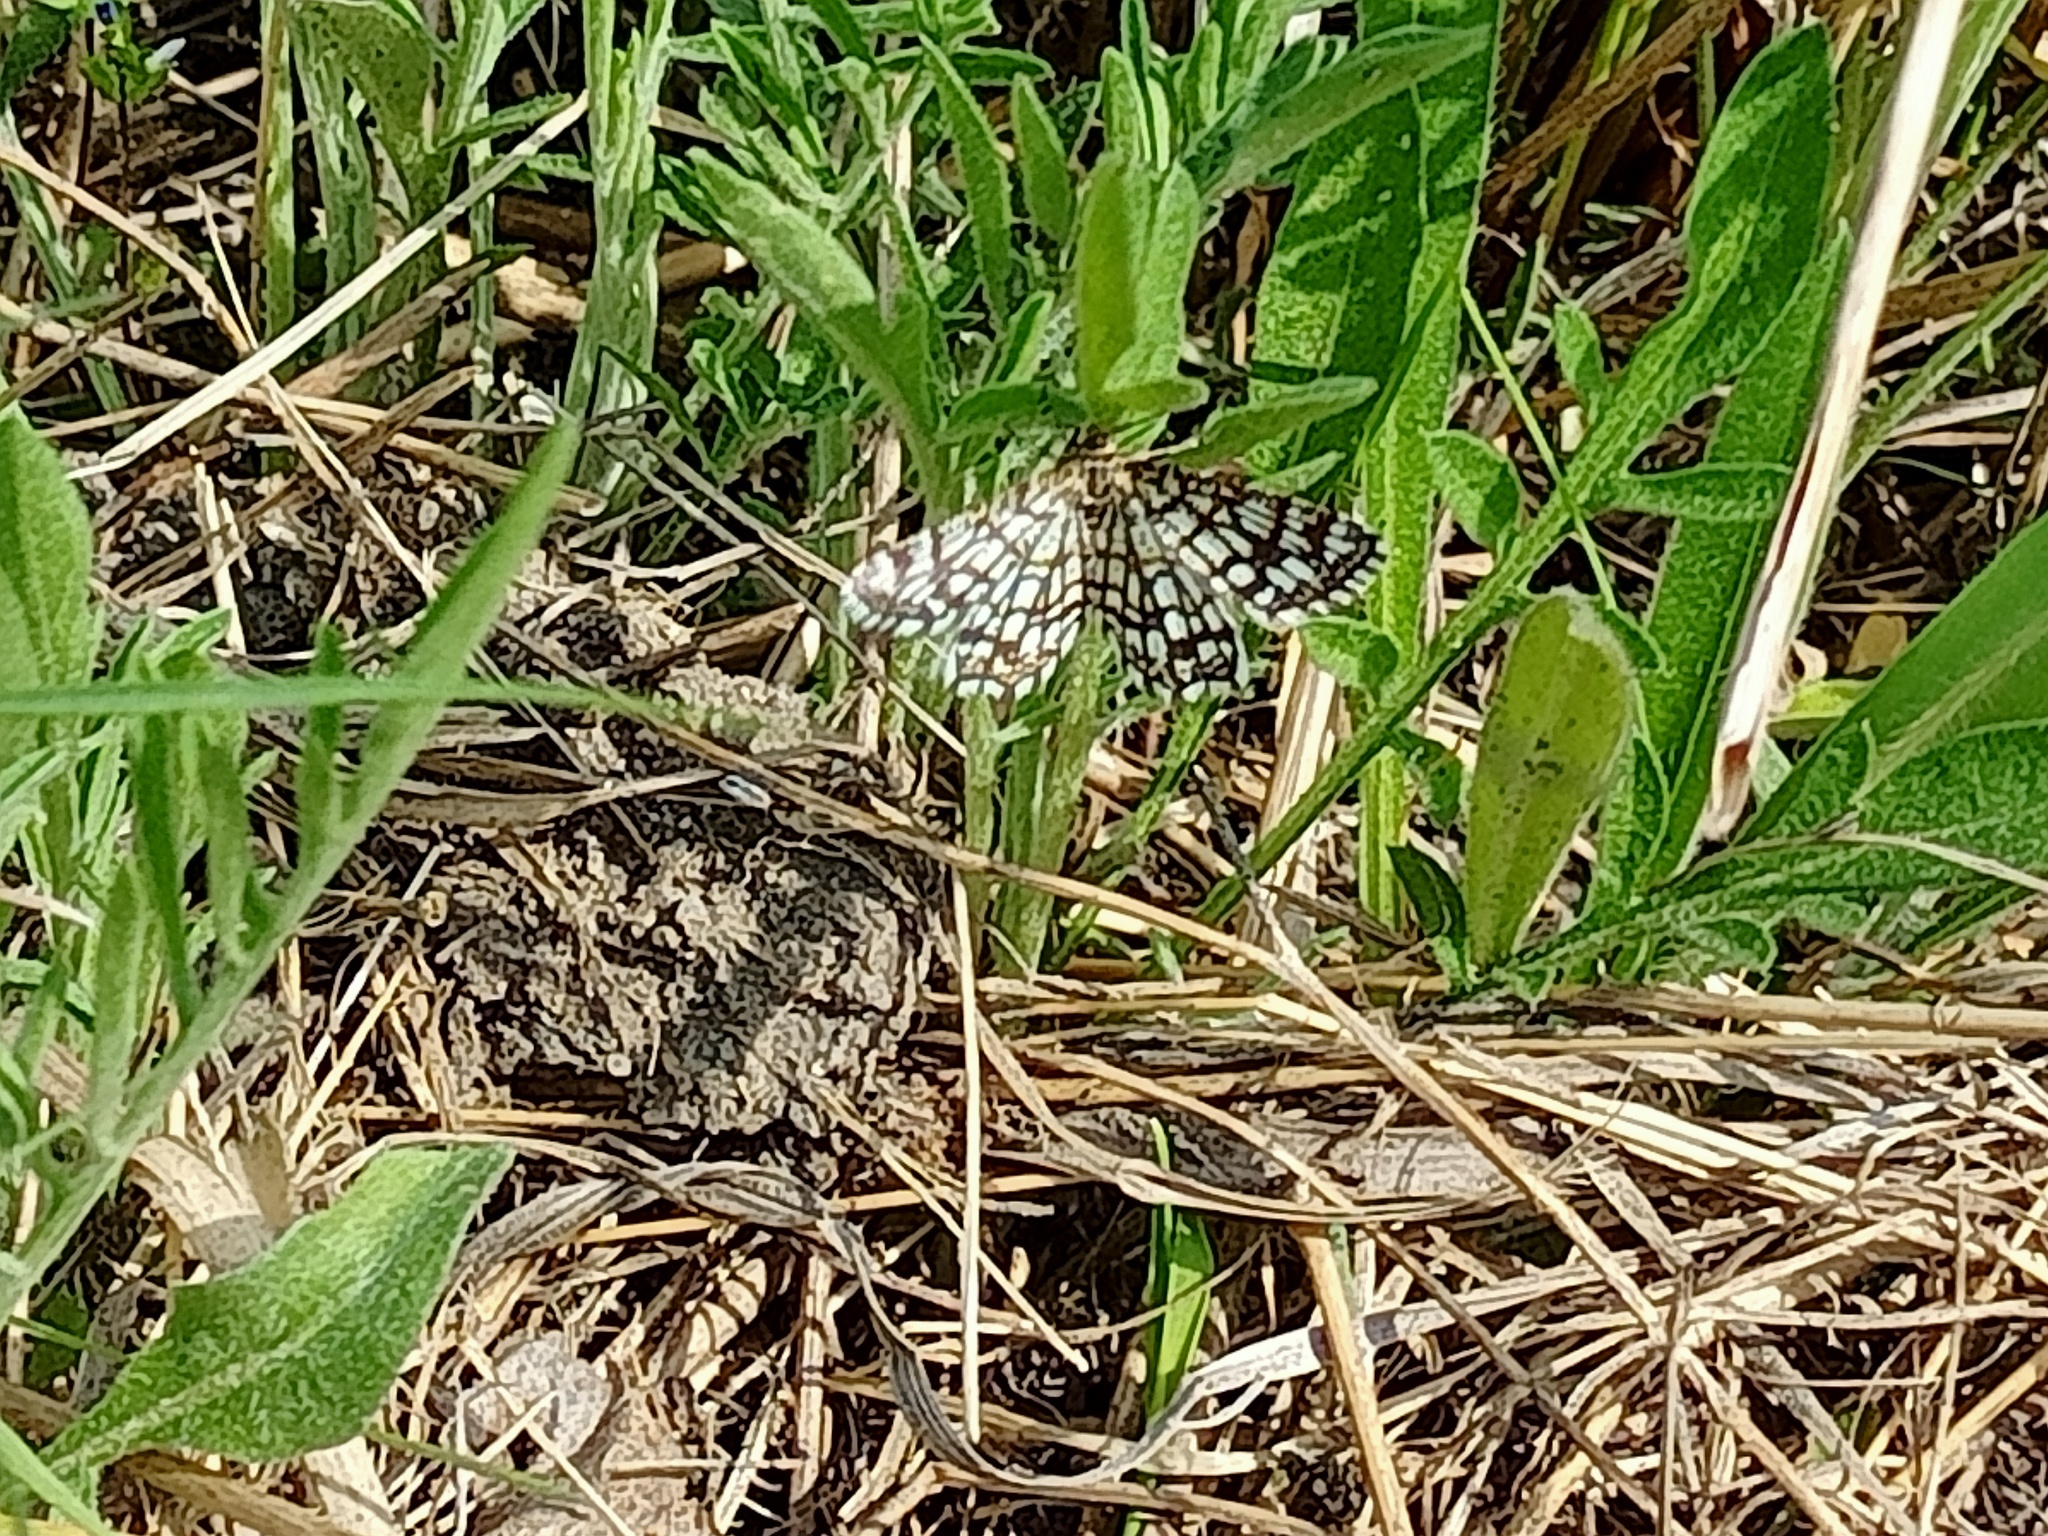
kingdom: Animalia
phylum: Arthropoda
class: Insecta
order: Lepidoptera
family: Geometridae
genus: Chiasmia
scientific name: Chiasmia clathrata
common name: Latticed heath
